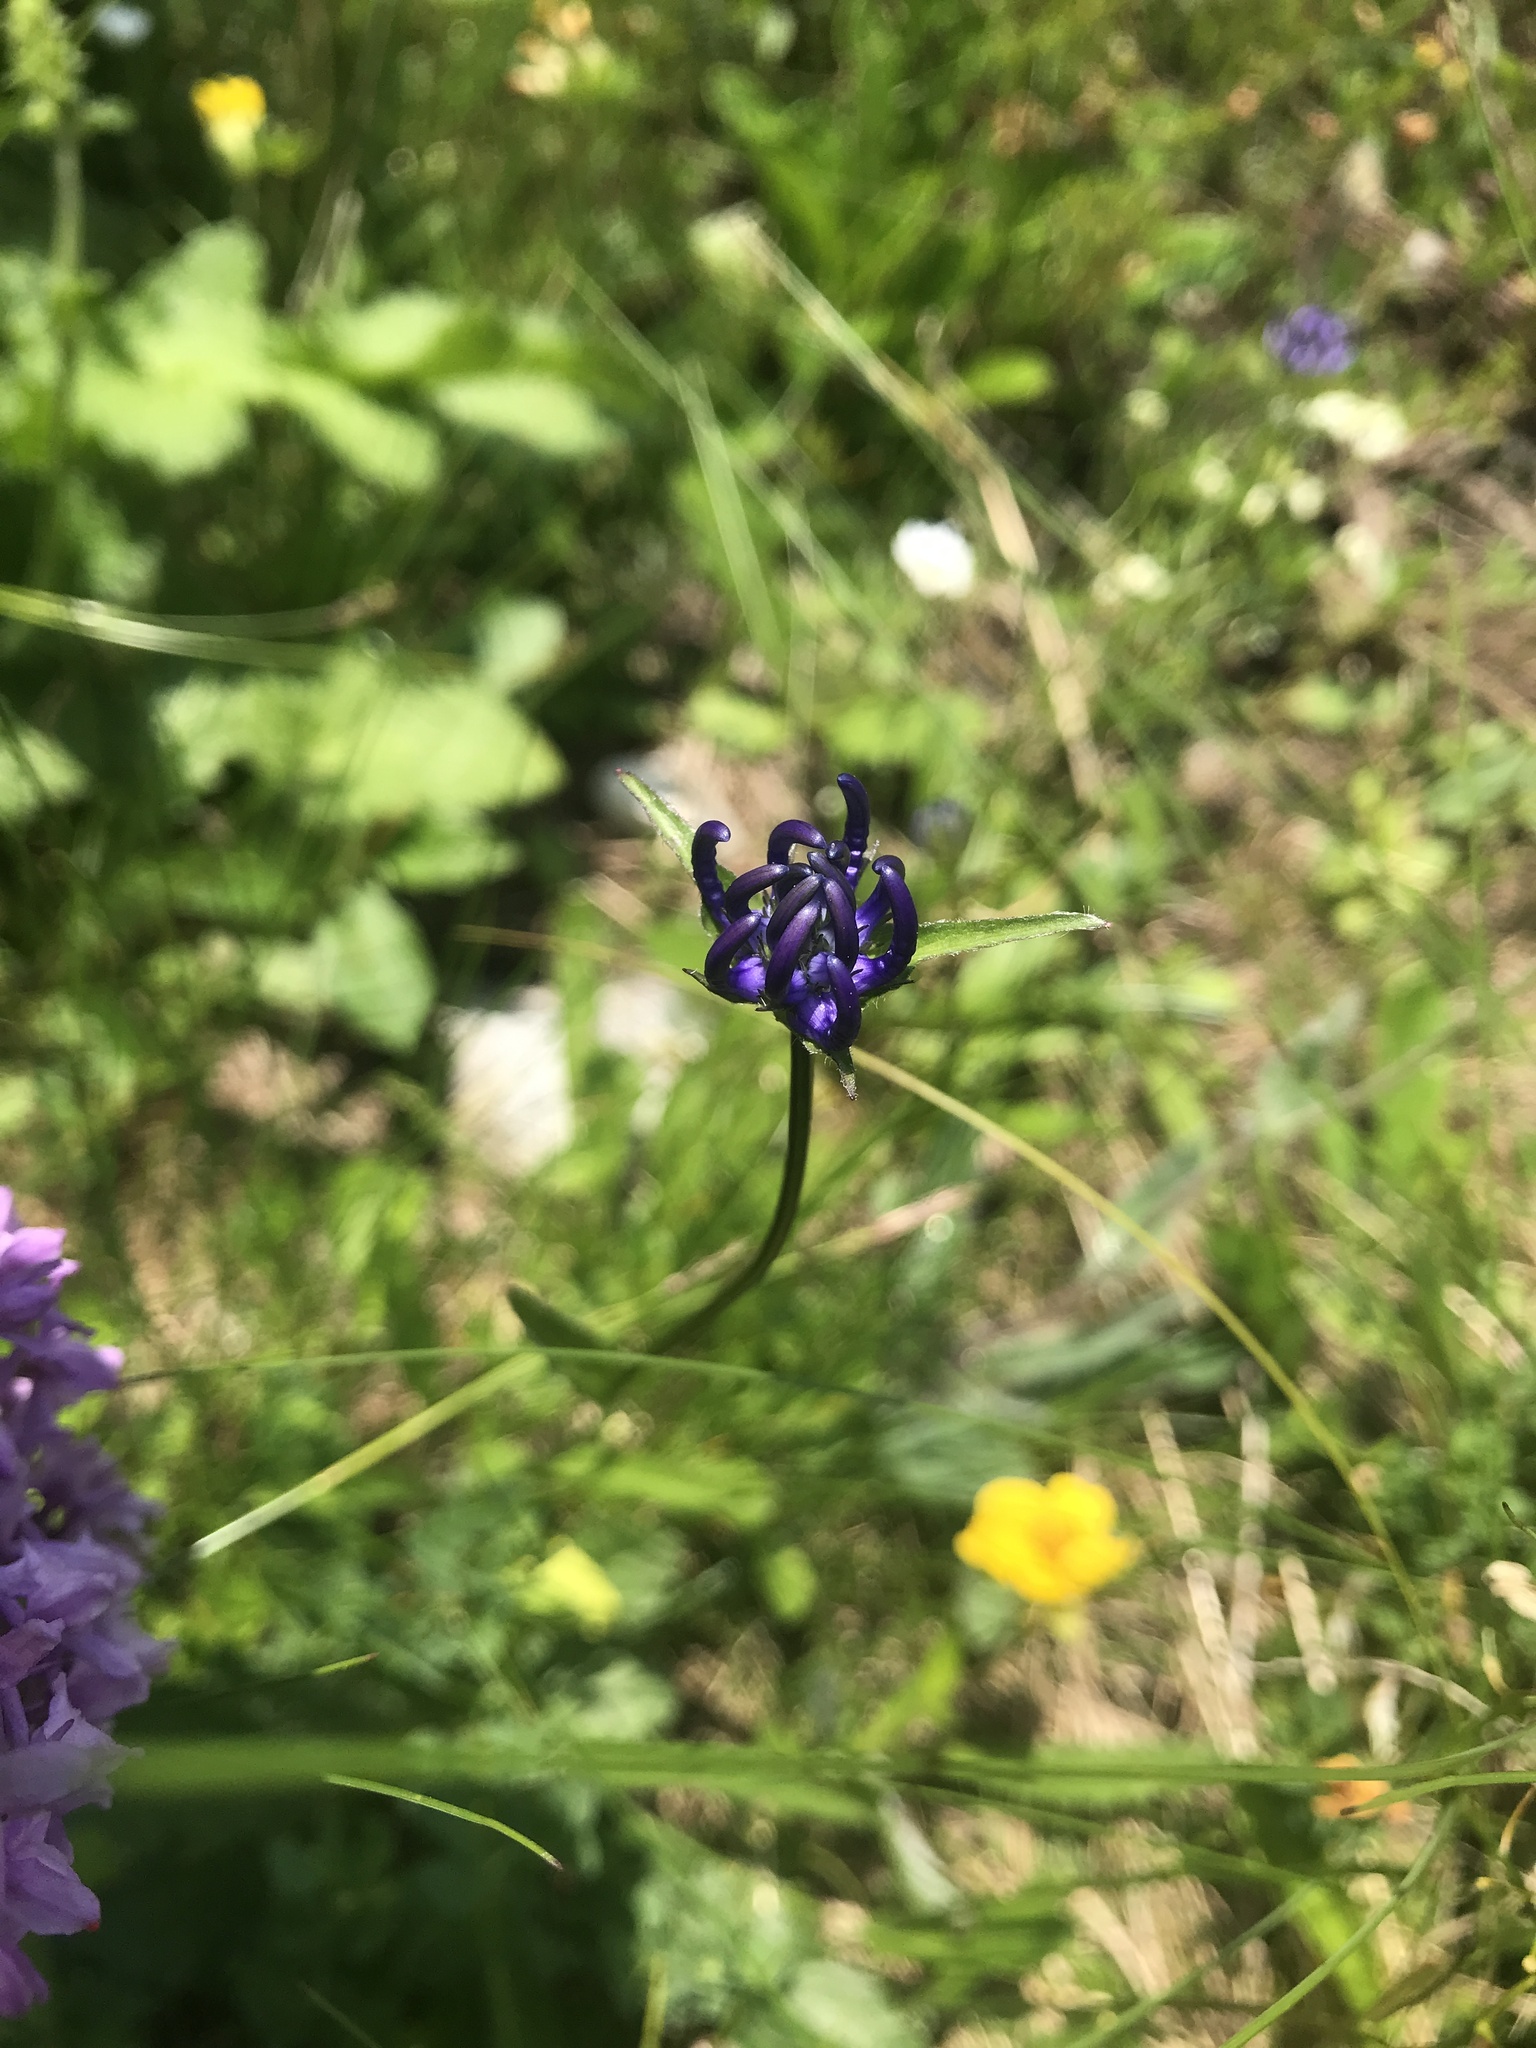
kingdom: Plantae
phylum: Tracheophyta
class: Magnoliopsida
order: Asterales
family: Campanulaceae
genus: Phyteuma
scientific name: Phyteuma orbiculare
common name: Round-headed rampion
